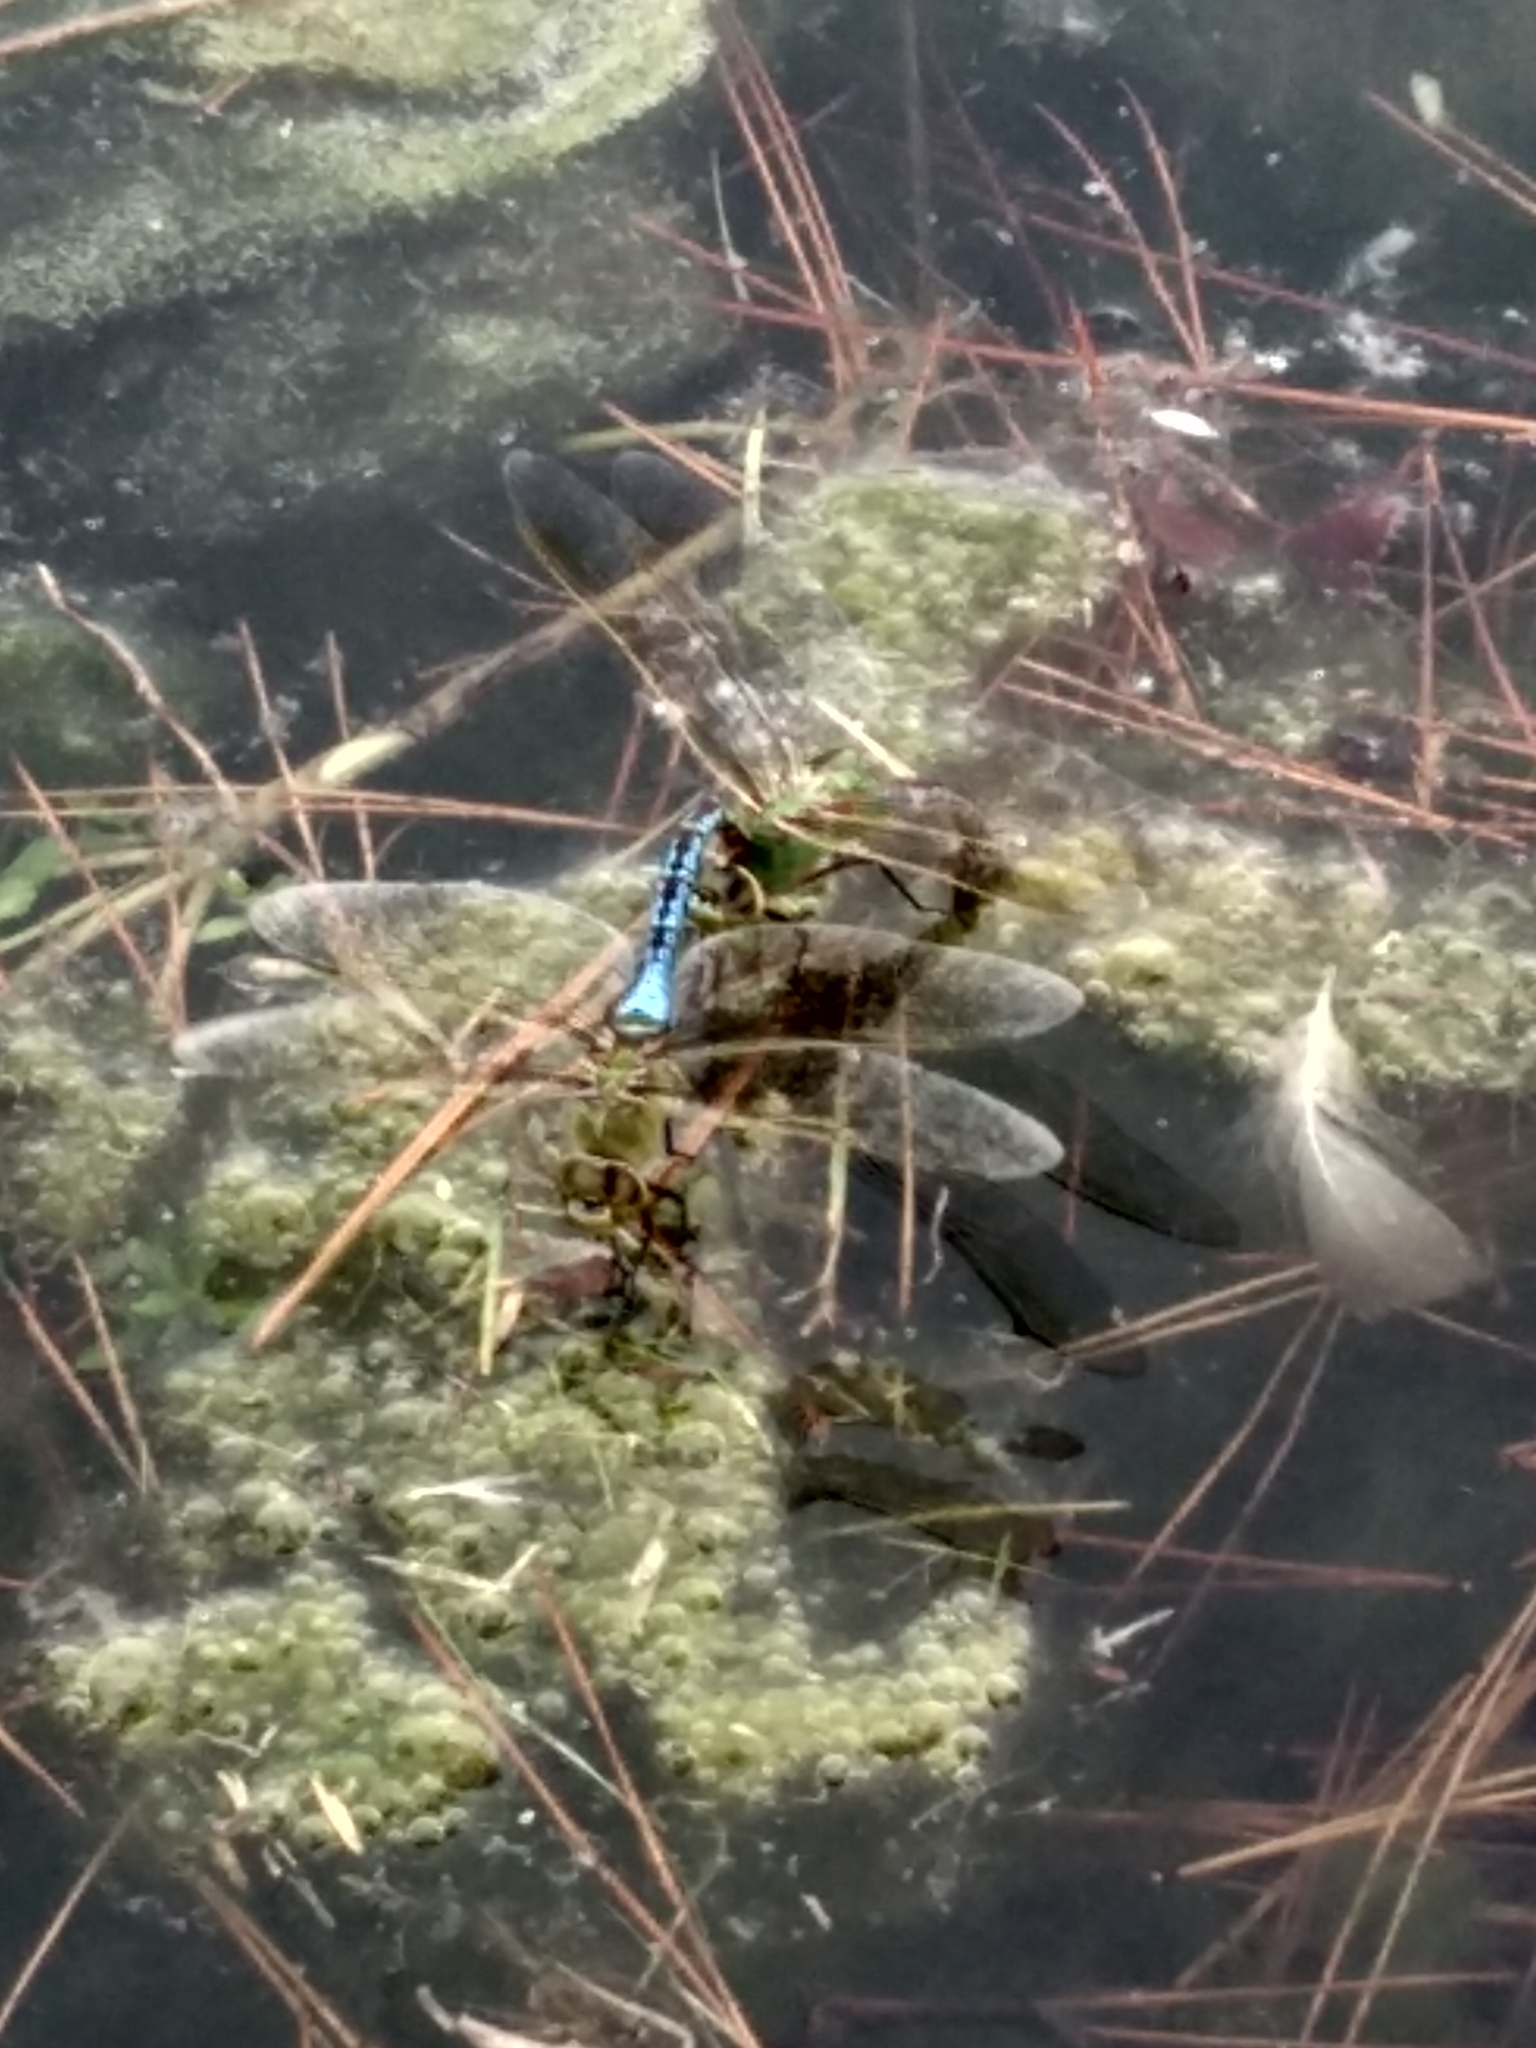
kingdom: Animalia
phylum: Arthropoda
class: Insecta
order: Odonata
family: Aeshnidae
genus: Anax
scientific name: Anax junius
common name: Common green darner
